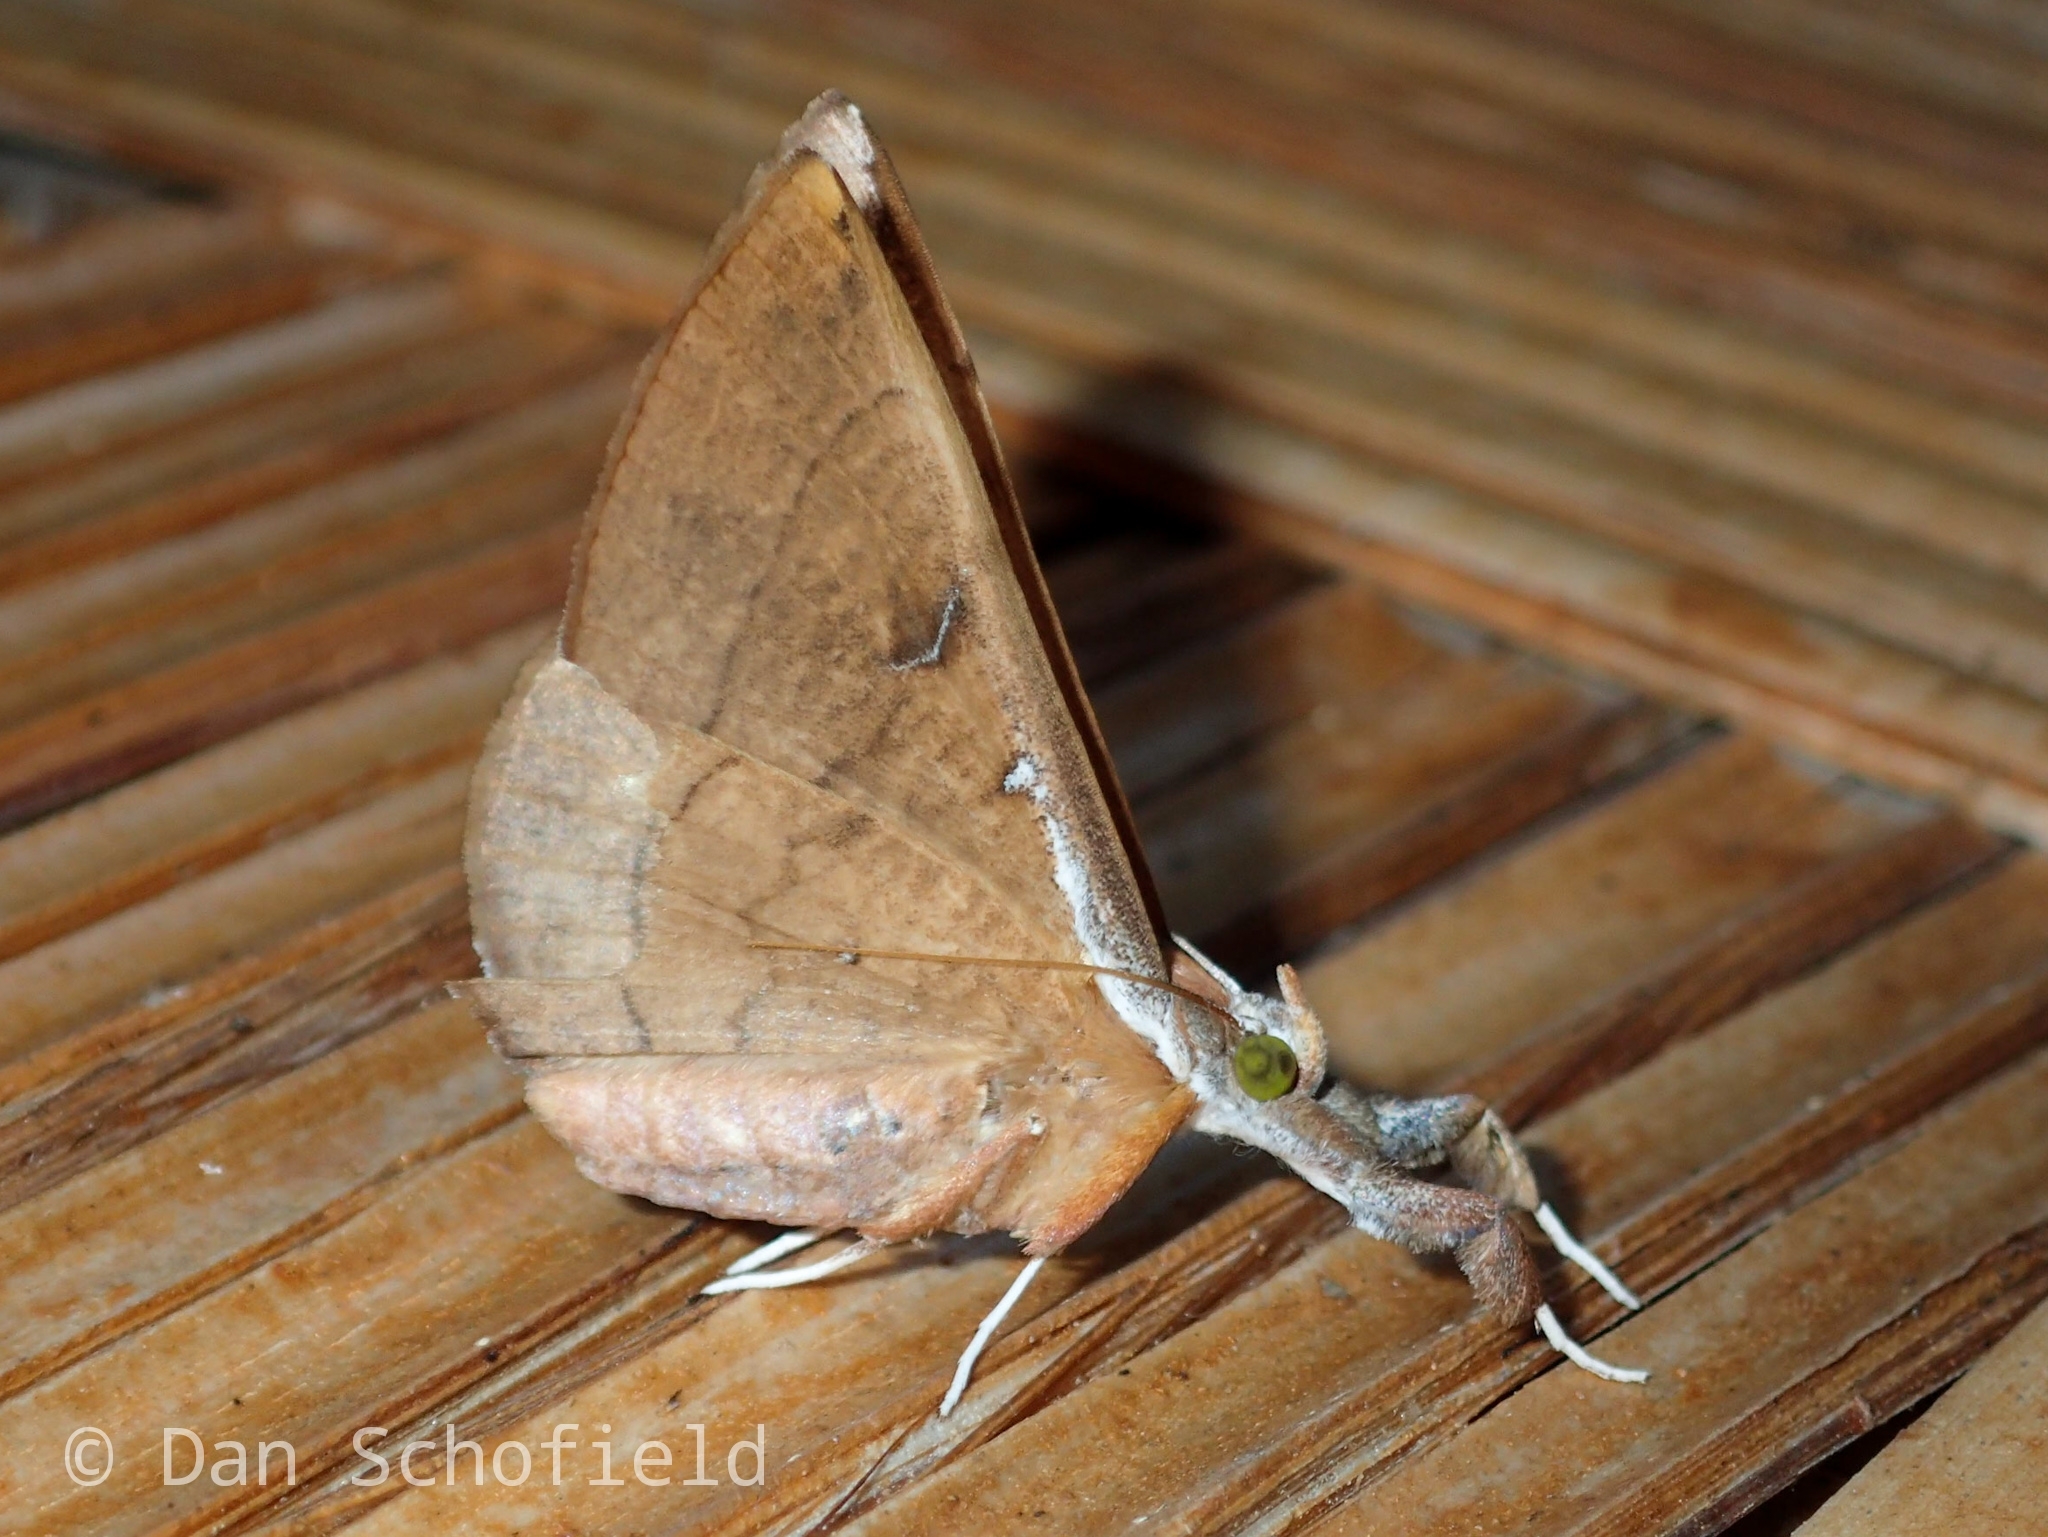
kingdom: Animalia
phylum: Arthropoda
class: Insecta
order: Lepidoptera
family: Erebidae
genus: Oxyodes
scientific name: Oxyodes scrobiculata
